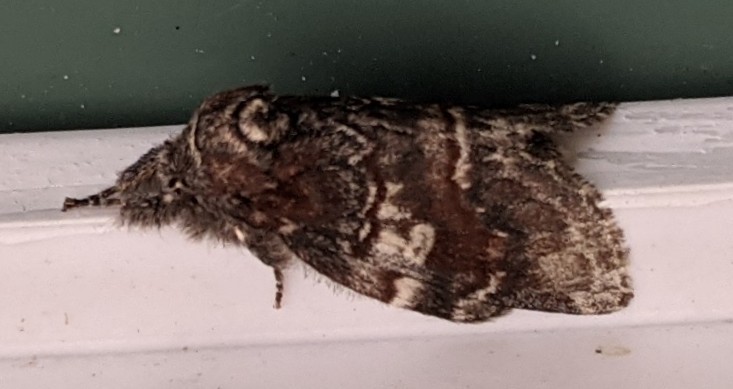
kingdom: Animalia
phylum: Arthropoda
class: Insecta
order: Lepidoptera
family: Notodontidae
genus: Peridea
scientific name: Peridea ferruginea
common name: Chocolate prominent
